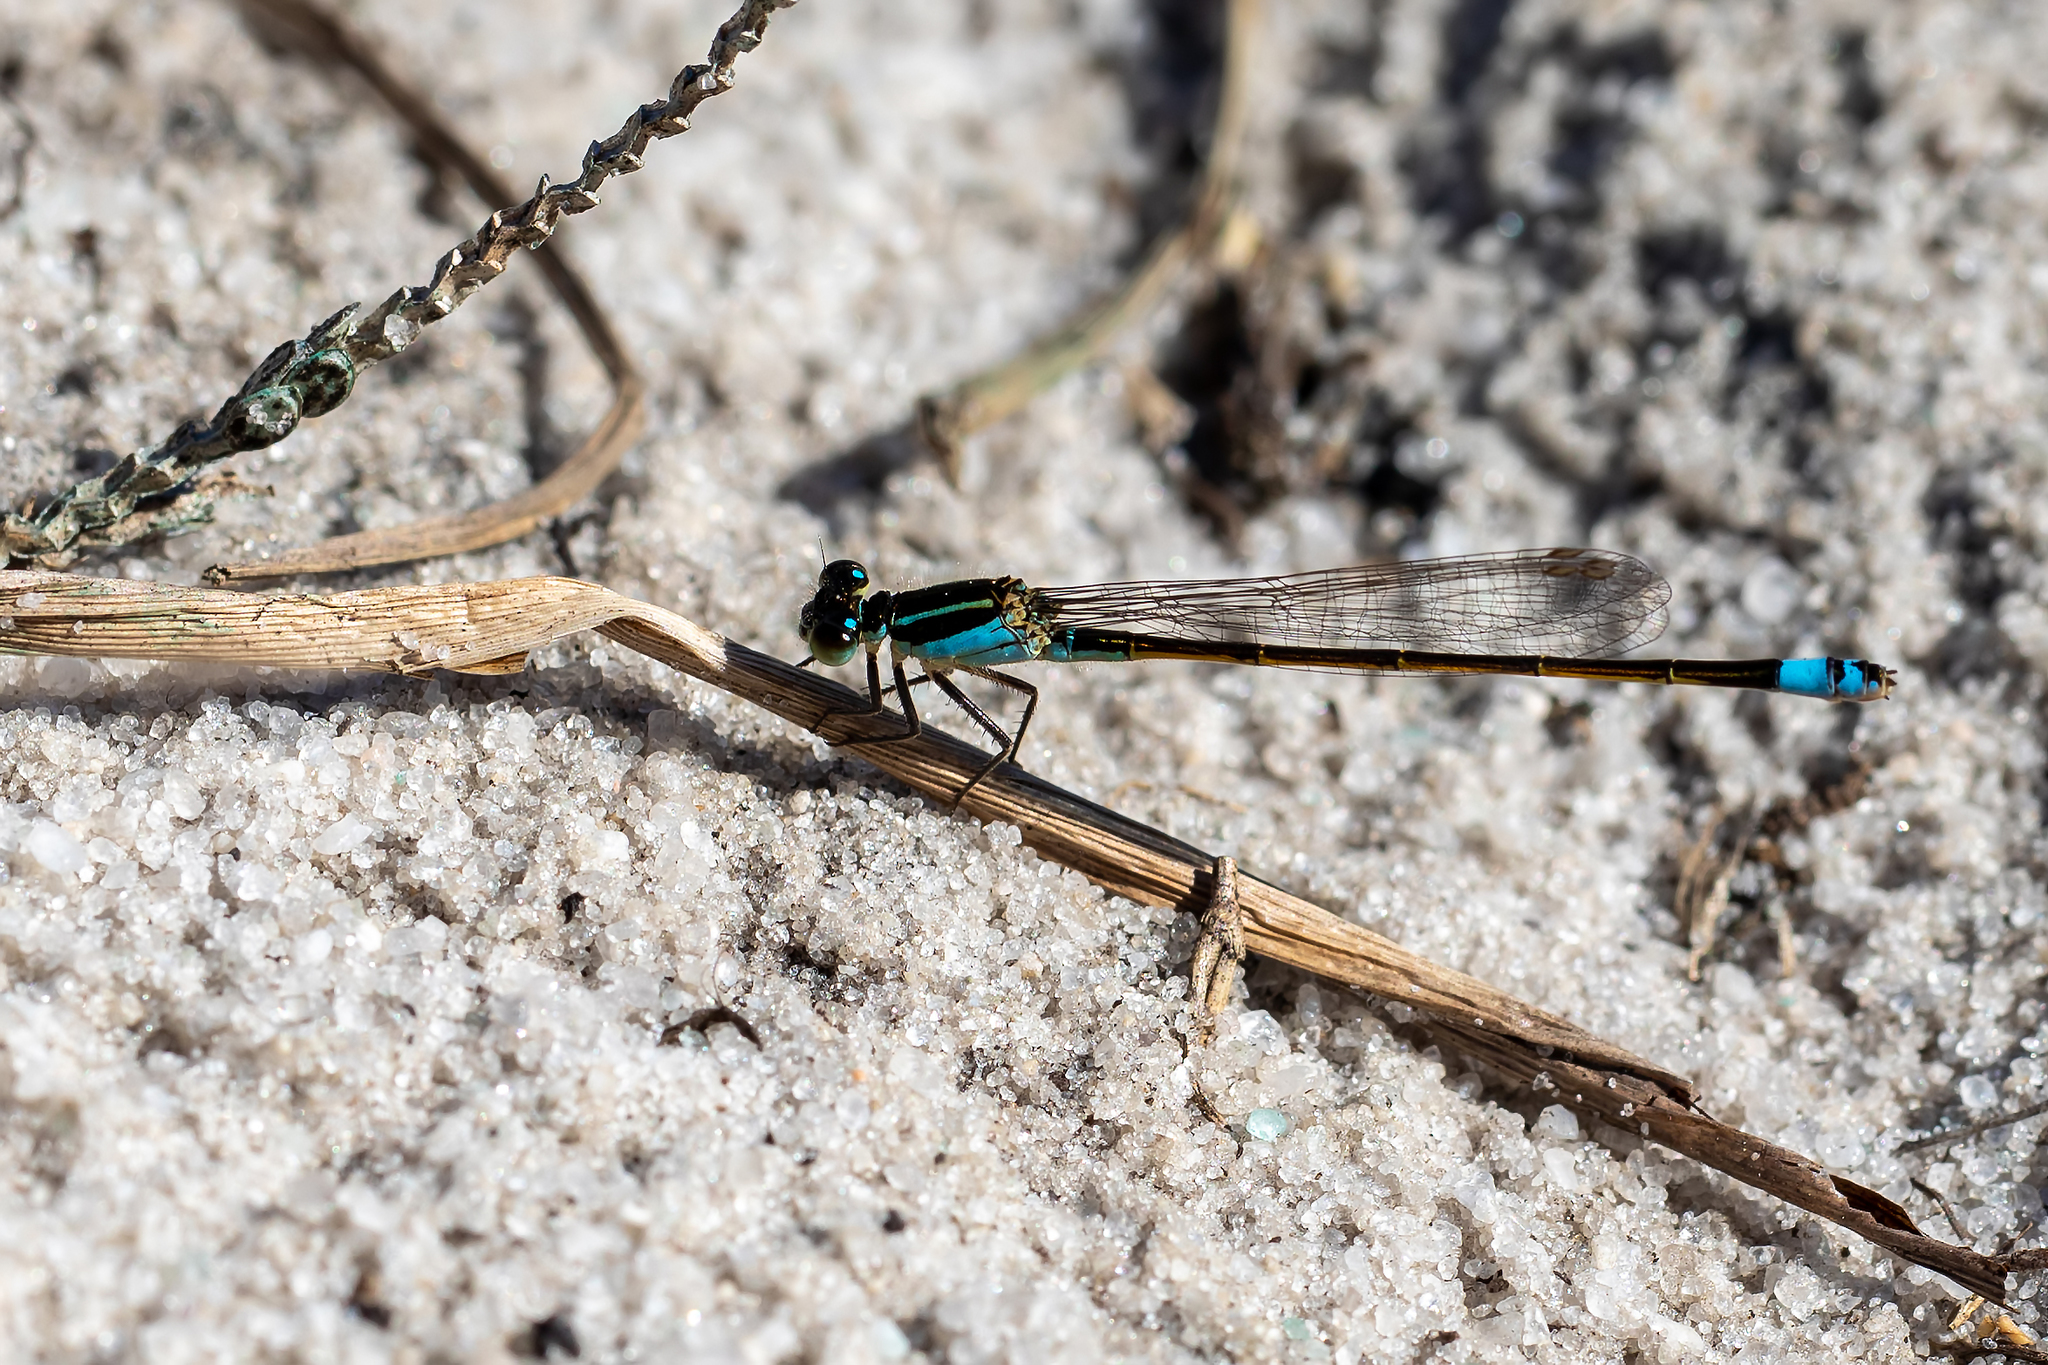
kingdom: Animalia
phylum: Arthropoda
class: Insecta
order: Odonata
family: Coenagrionidae
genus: Ischnura
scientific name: Ischnura ramburii
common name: Rambur's forktail
